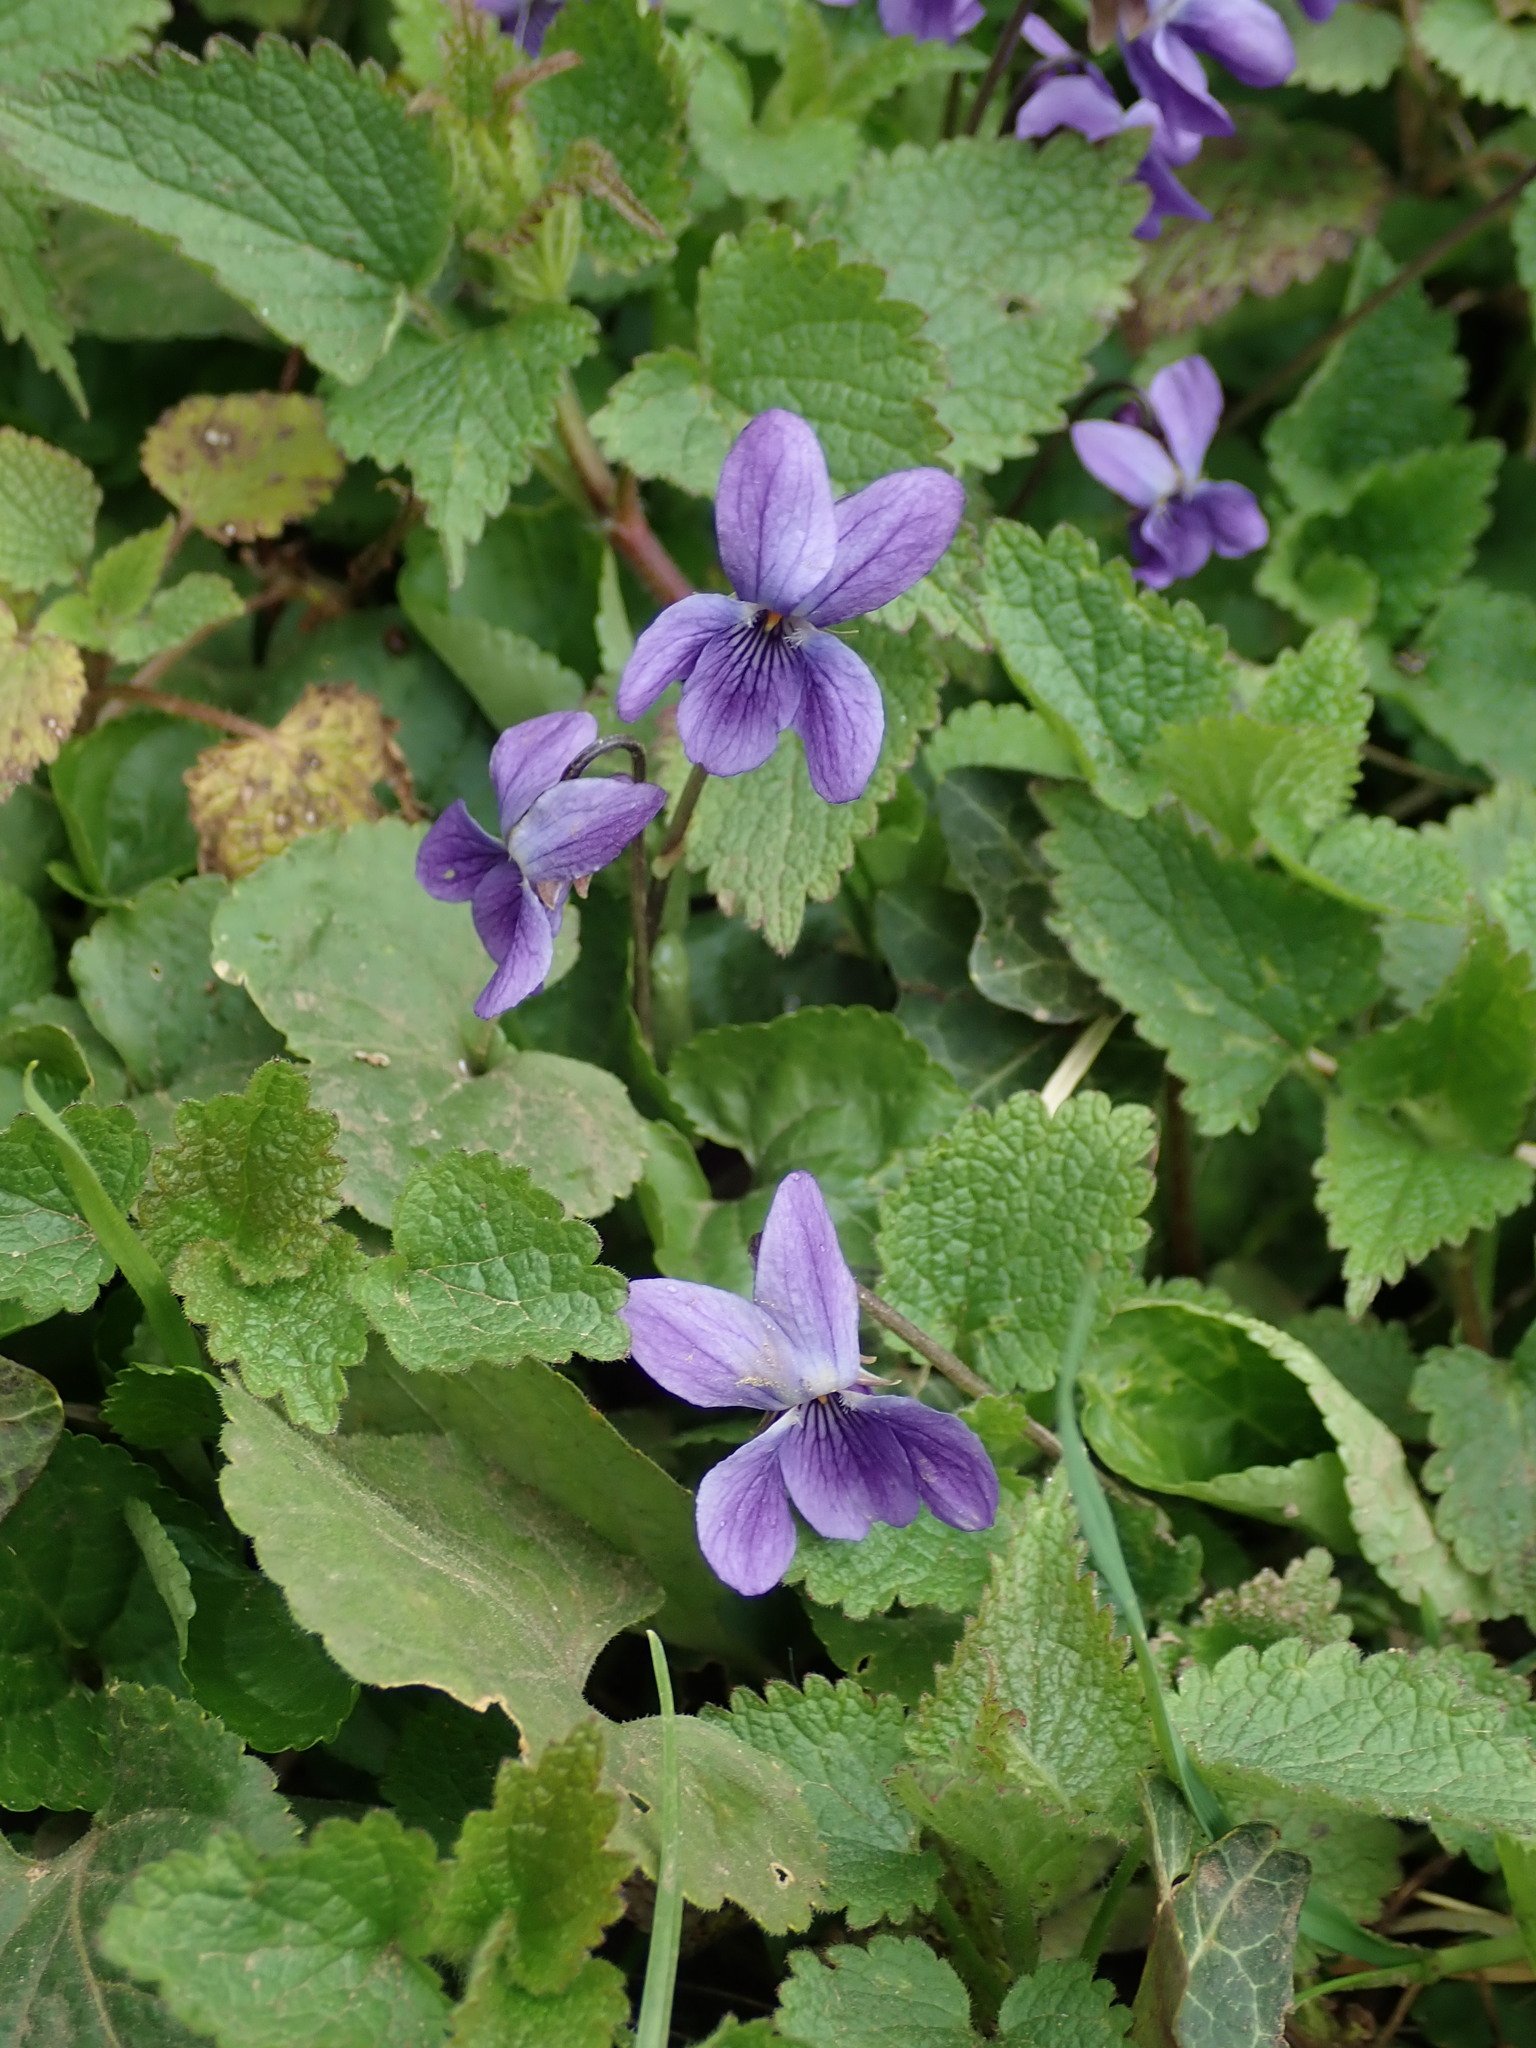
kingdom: Plantae
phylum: Tracheophyta
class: Magnoliopsida
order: Malpighiales
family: Violaceae
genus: Viola
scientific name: Viola odorata
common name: Sweet violet
